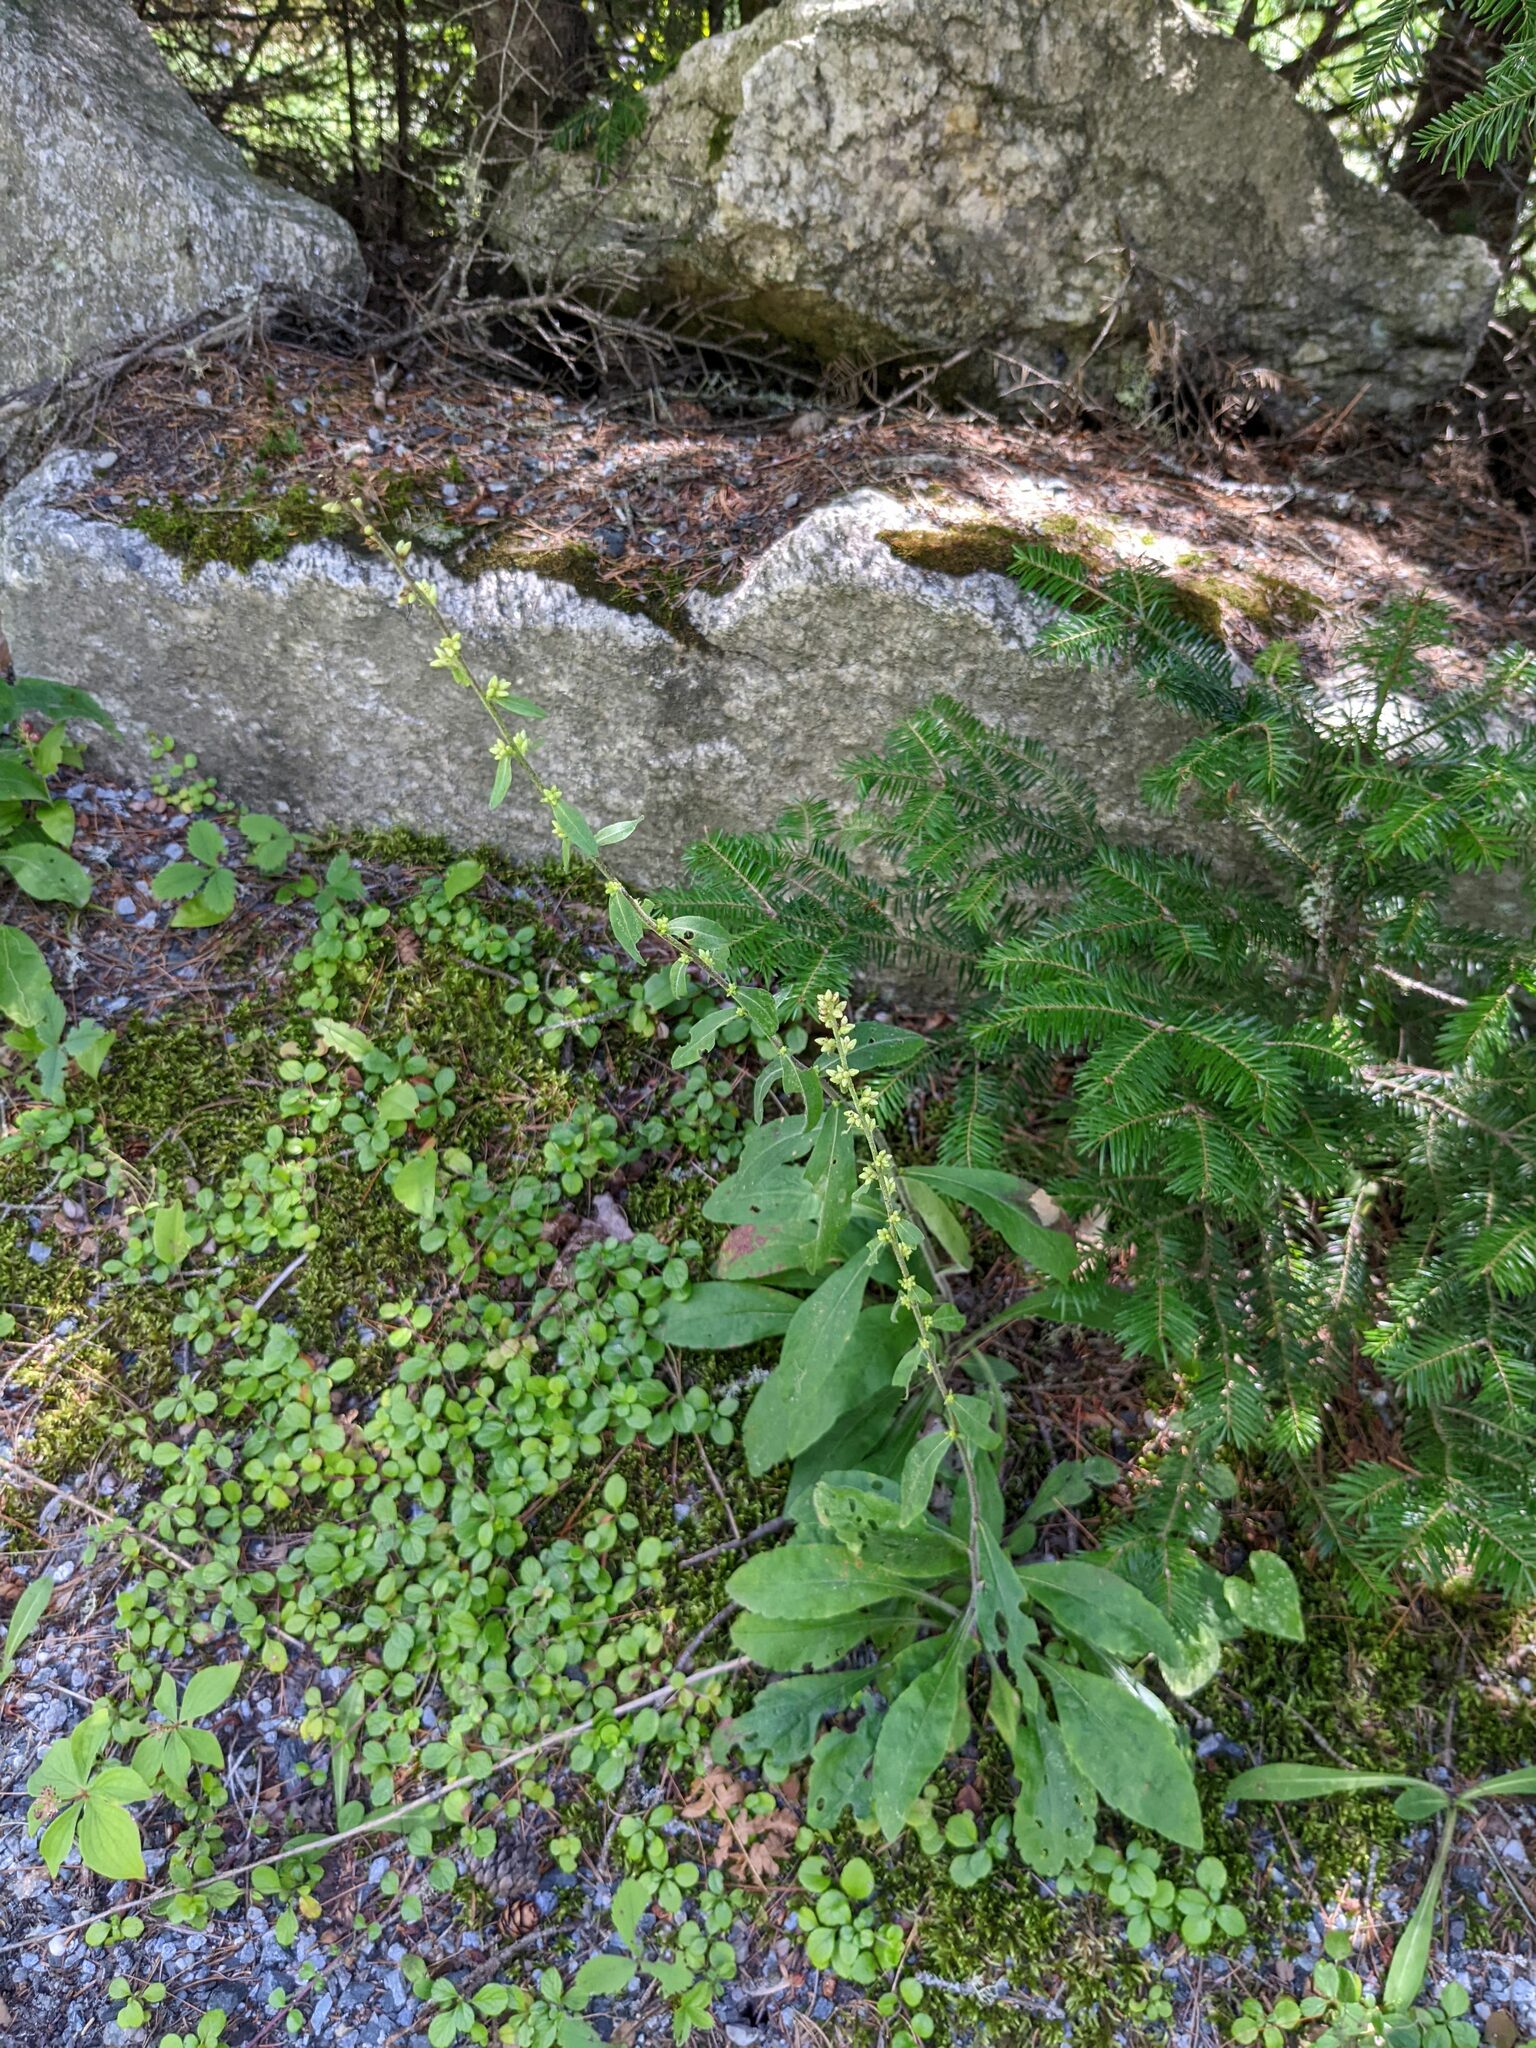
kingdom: Plantae
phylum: Tracheophyta
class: Magnoliopsida
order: Asterales
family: Asteraceae
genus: Solidago
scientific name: Solidago bicolor
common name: Silverrod
